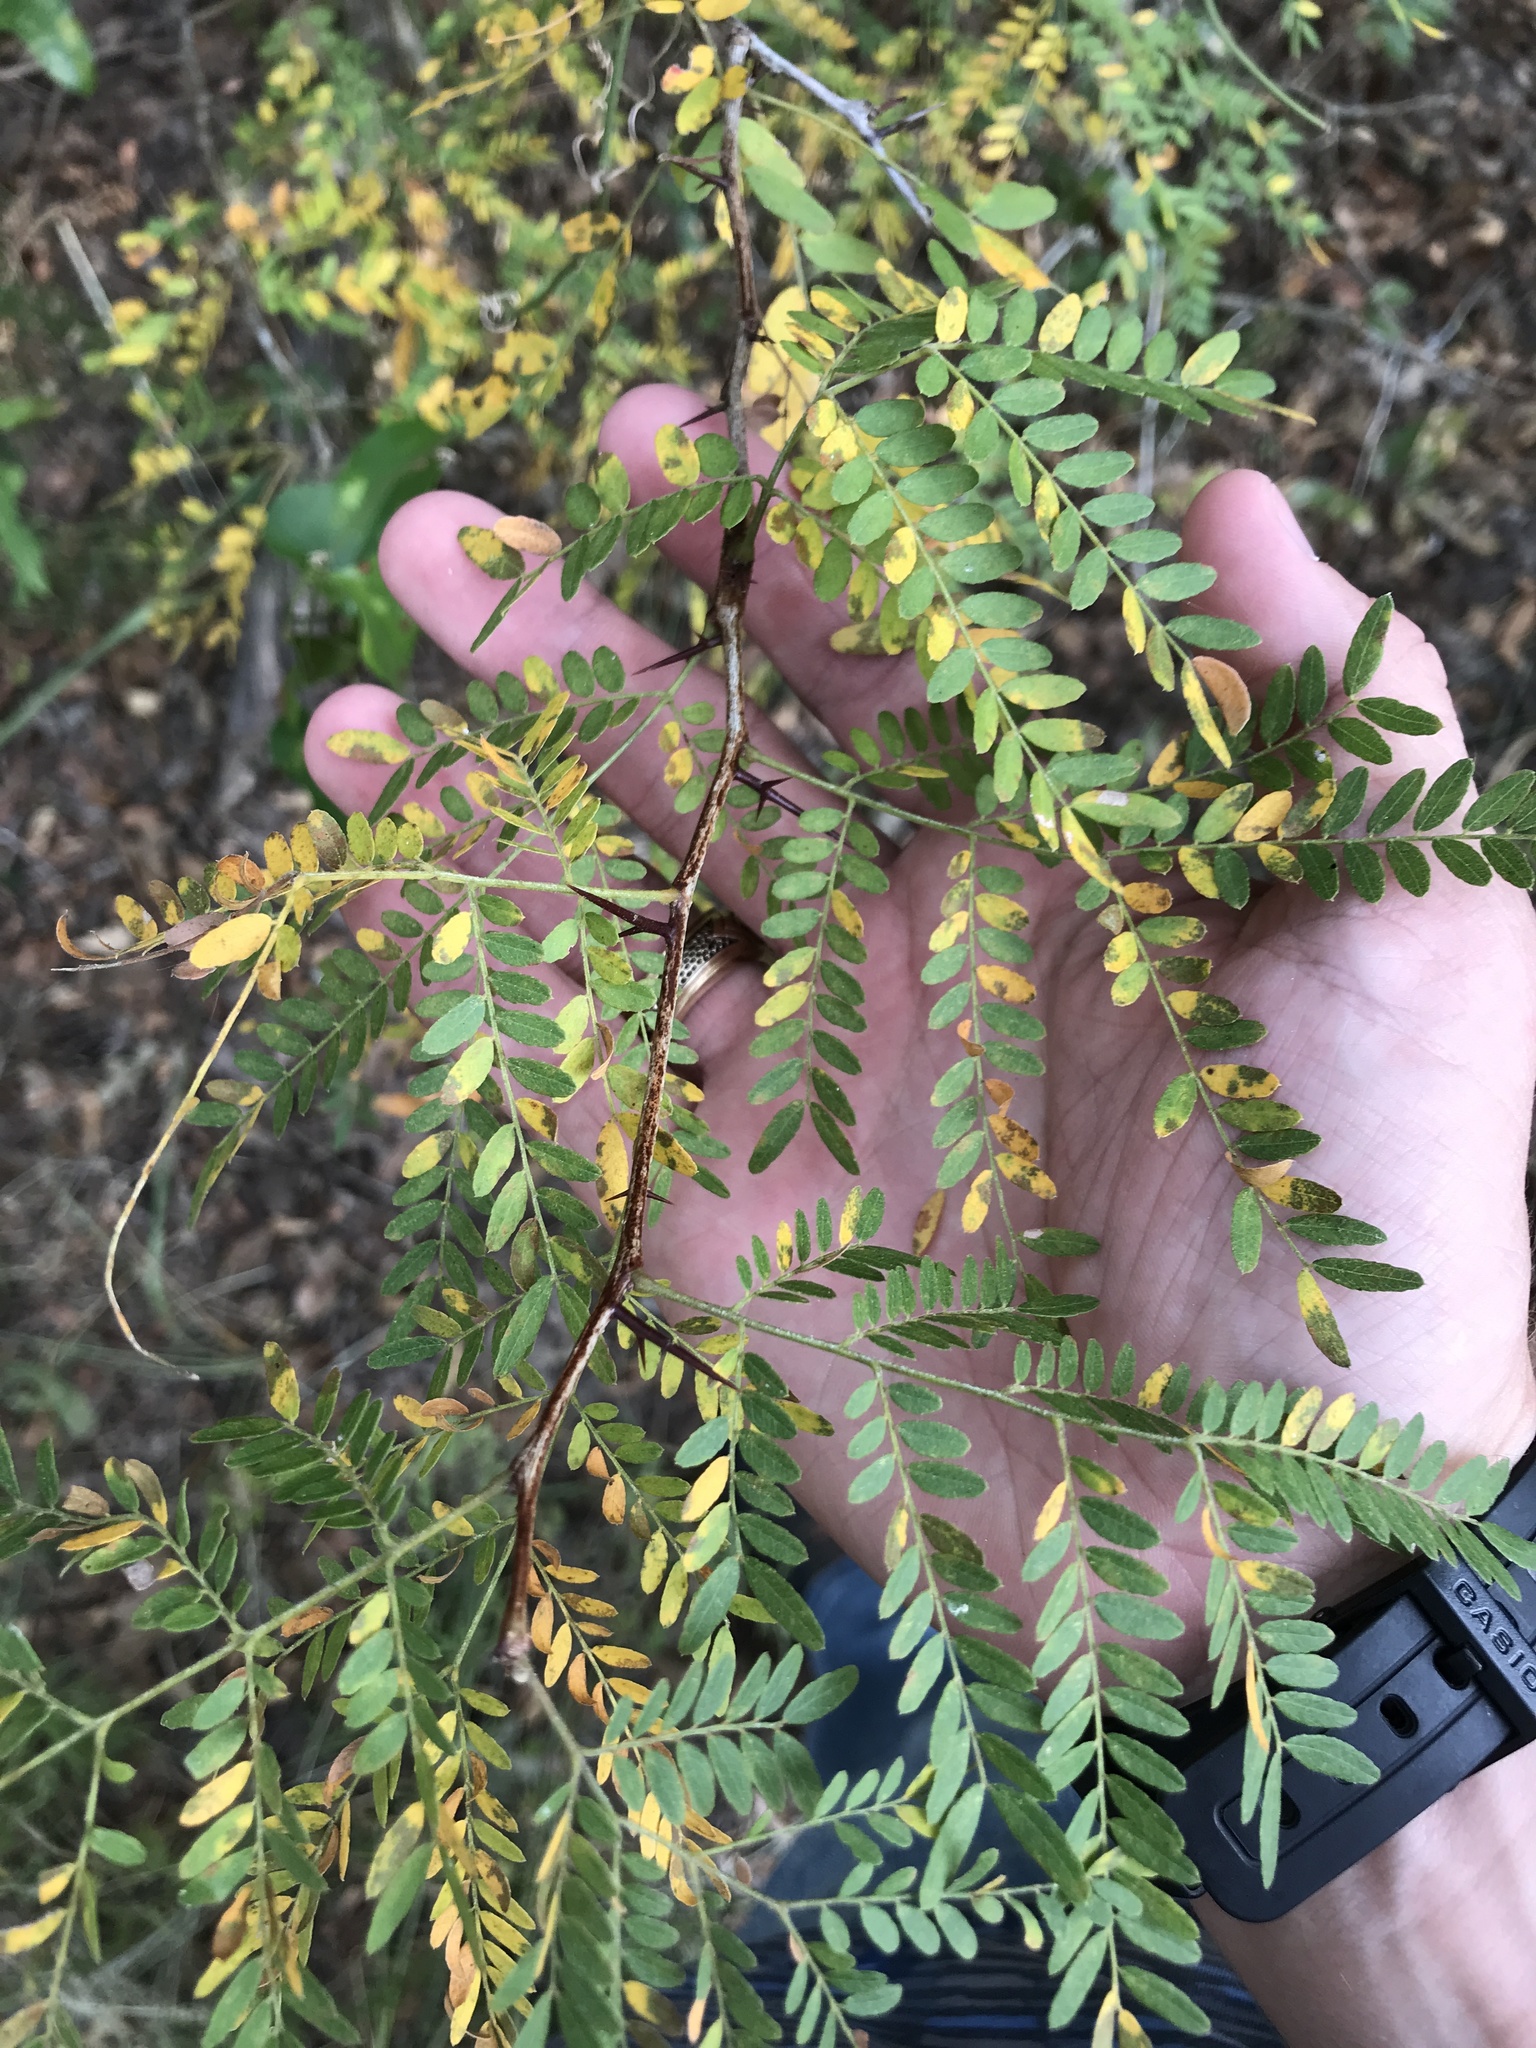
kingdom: Plantae
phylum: Tracheophyta
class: Magnoliopsida
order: Fabales
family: Fabaceae
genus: Gleditsia
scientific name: Gleditsia triacanthos
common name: Common honeylocust
